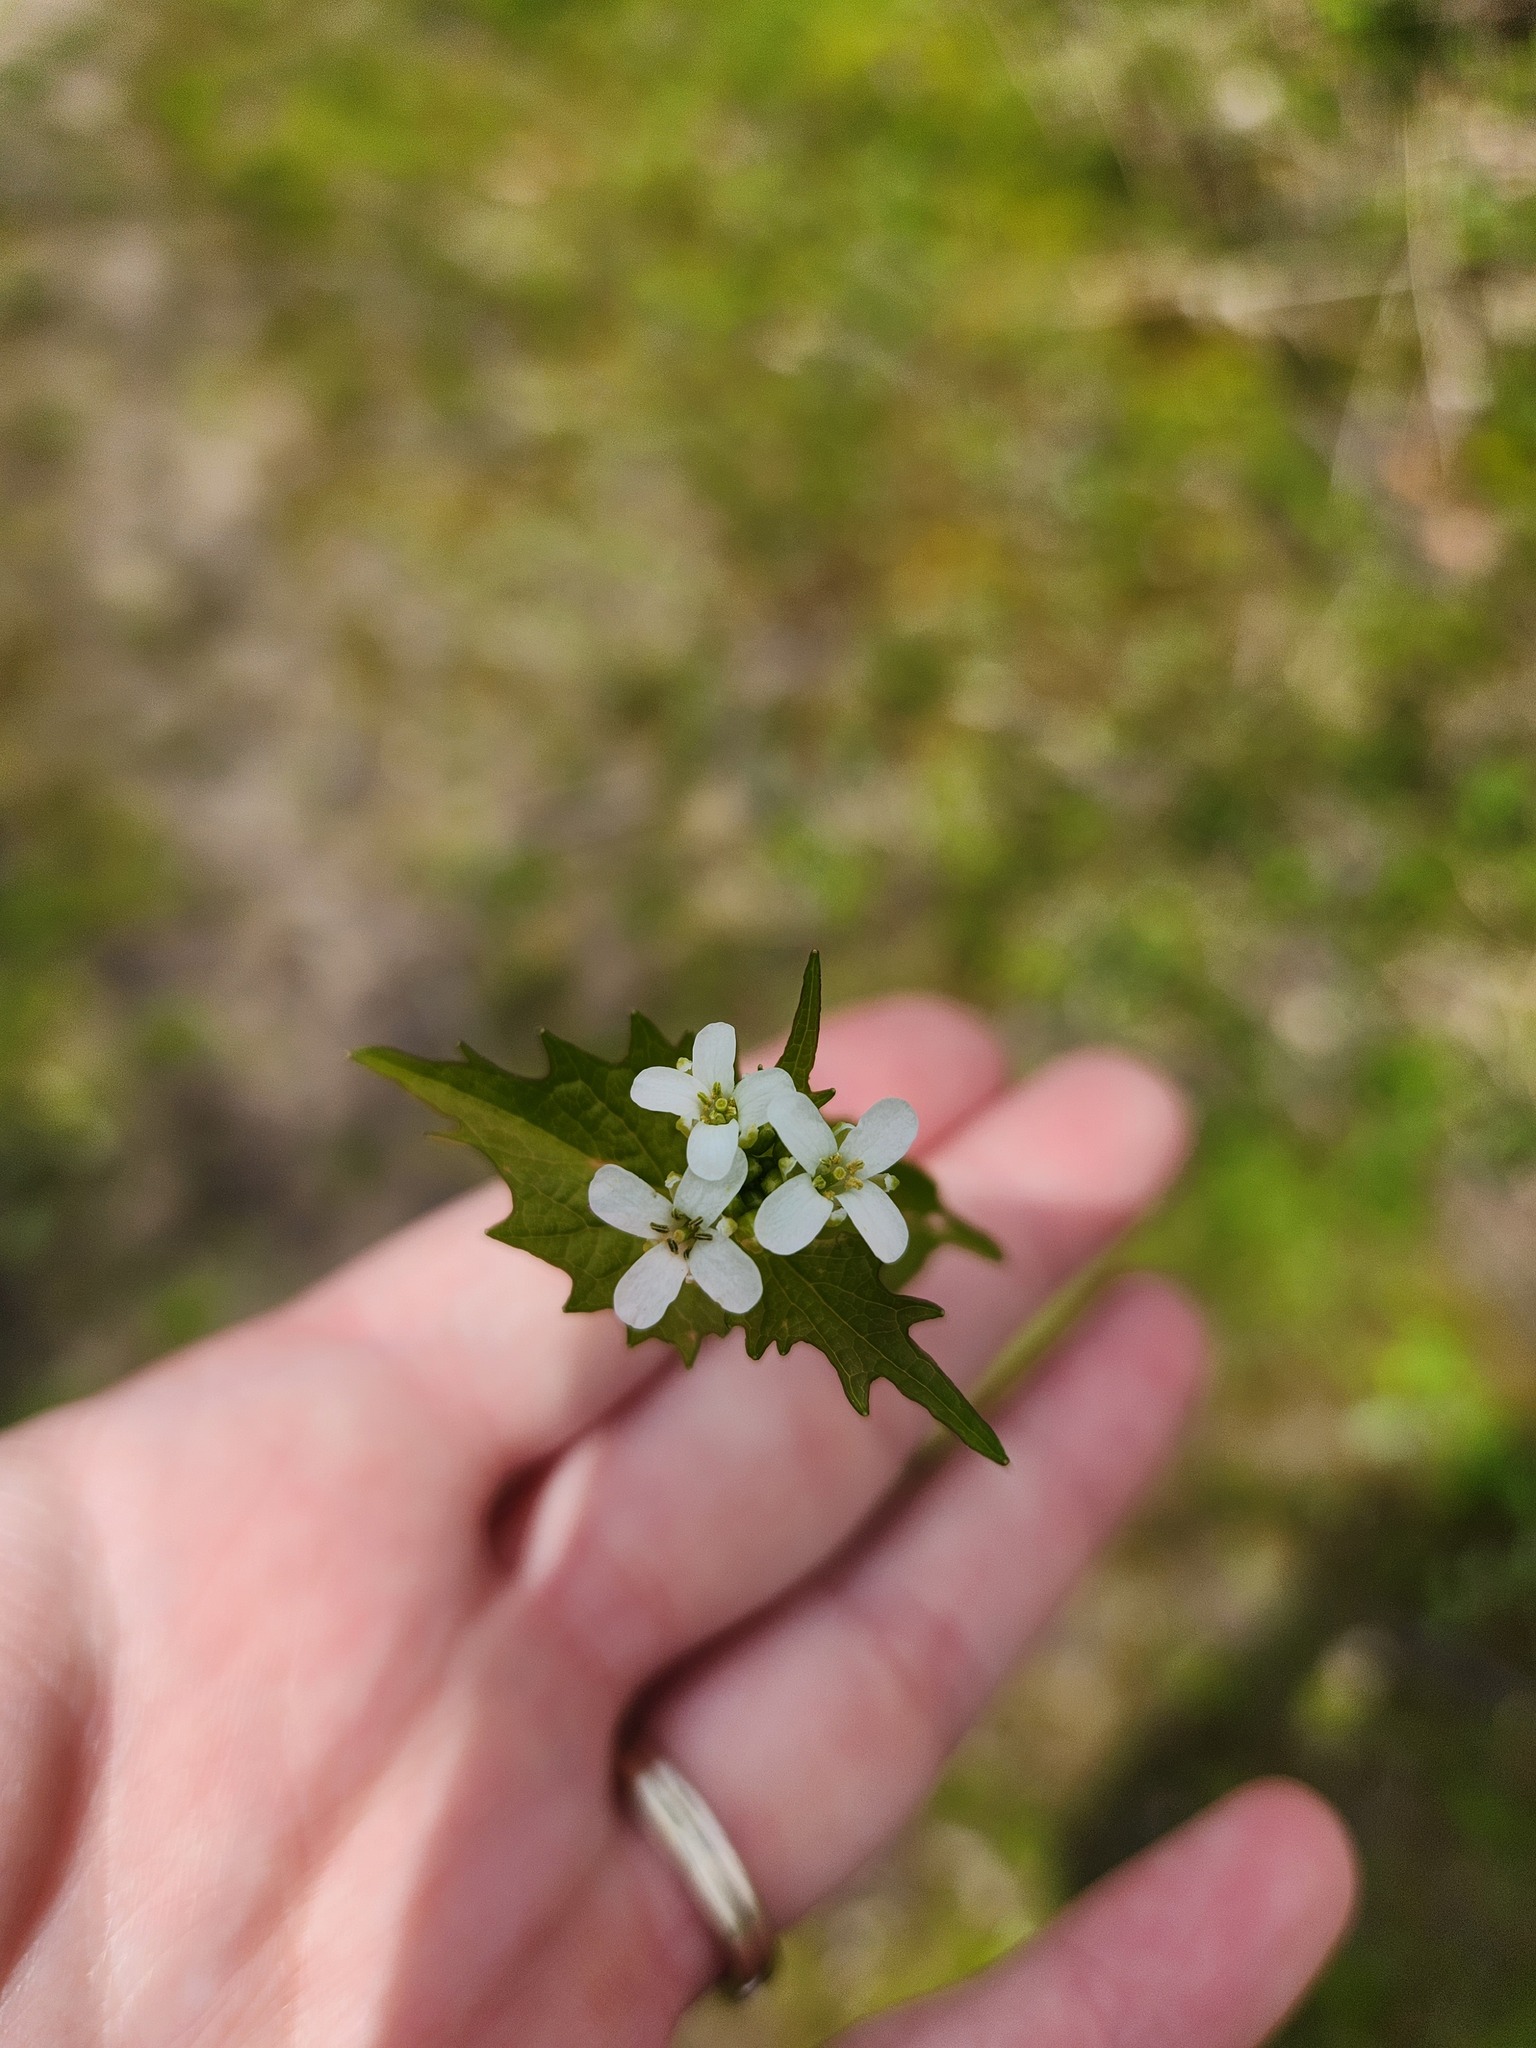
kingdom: Plantae
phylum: Tracheophyta
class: Magnoliopsida
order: Brassicales
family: Brassicaceae
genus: Alliaria
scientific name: Alliaria petiolata
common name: Garlic mustard
